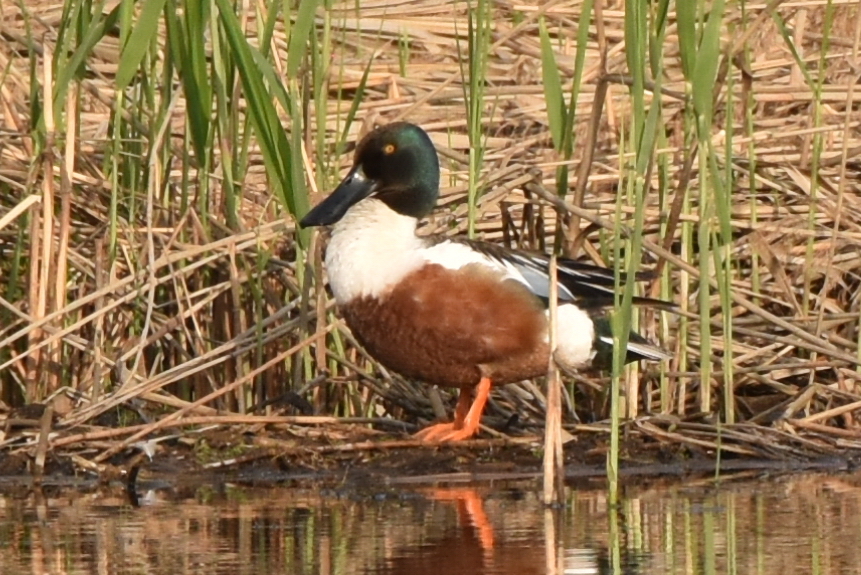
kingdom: Animalia
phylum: Chordata
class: Aves
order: Anseriformes
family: Anatidae
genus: Spatula
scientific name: Spatula clypeata
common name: Northern shoveler
